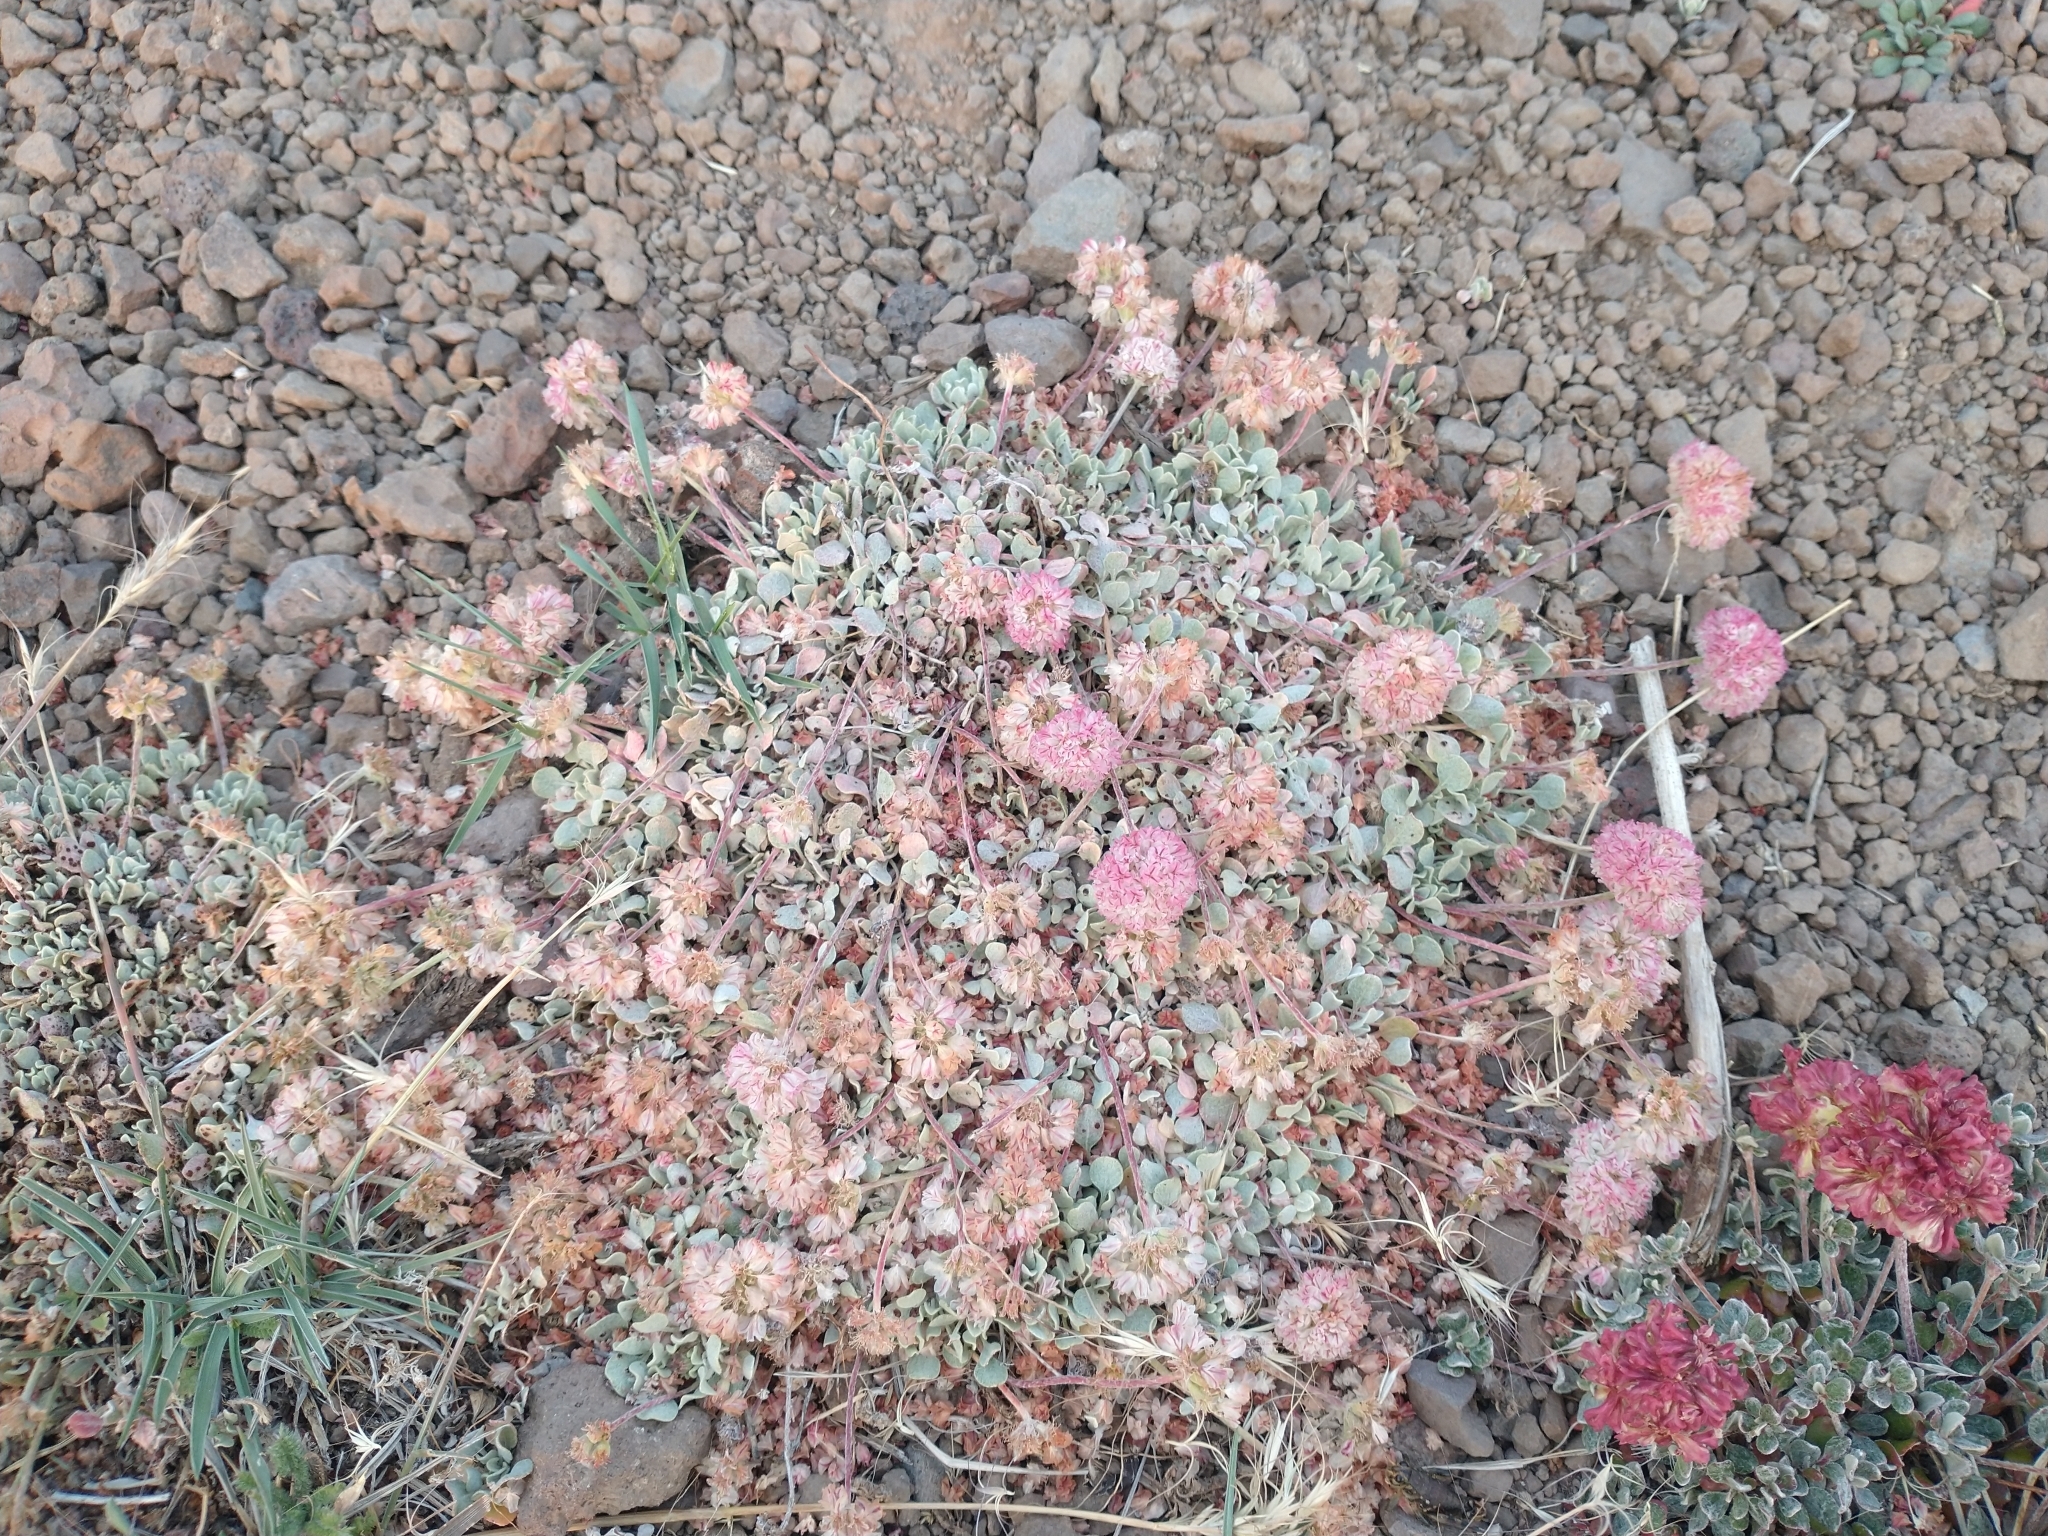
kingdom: Plantae
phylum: Tracheophyta
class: Magnoliopsida
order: Caryophyllales
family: Polygonaceae
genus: Eriogonum
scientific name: Eriogonum ovalifolium
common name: Cushion buckwheat
